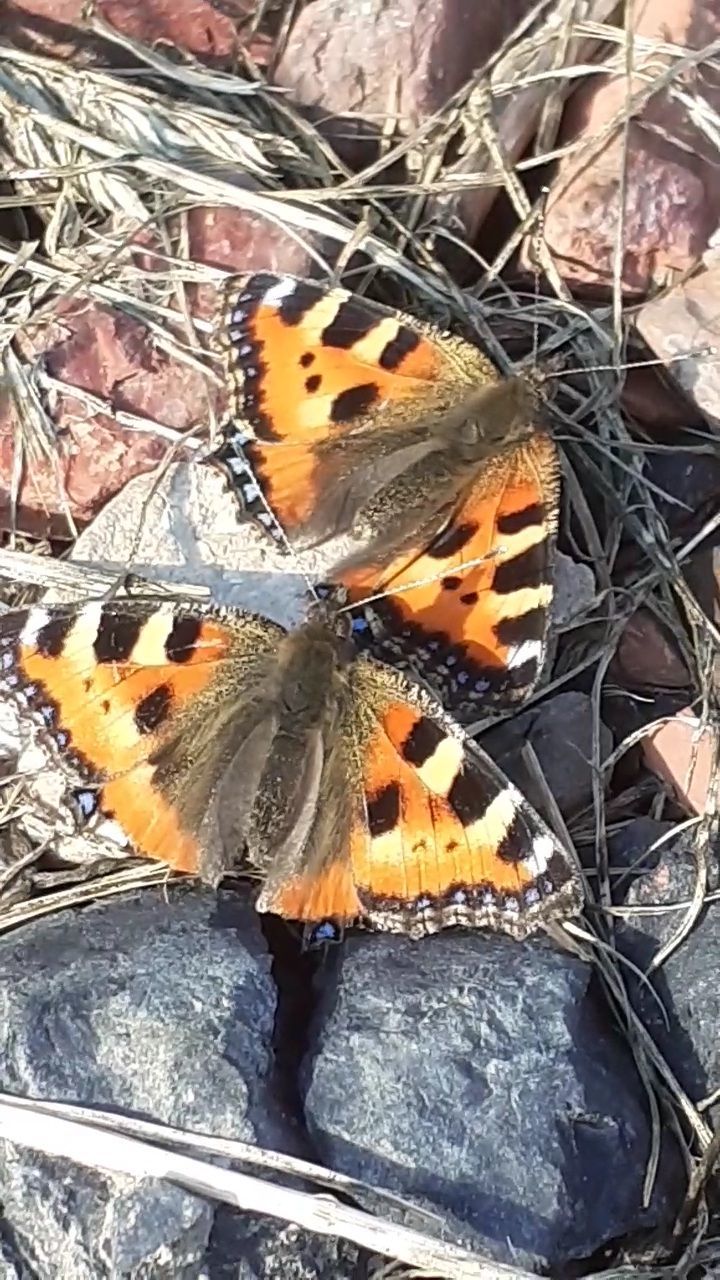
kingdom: Animalia
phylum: Arthropoda
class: Insecta
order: Lepidoptera
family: Nymphalidae
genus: Aglais
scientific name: Aglais urticae
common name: Small tortoiseshell
